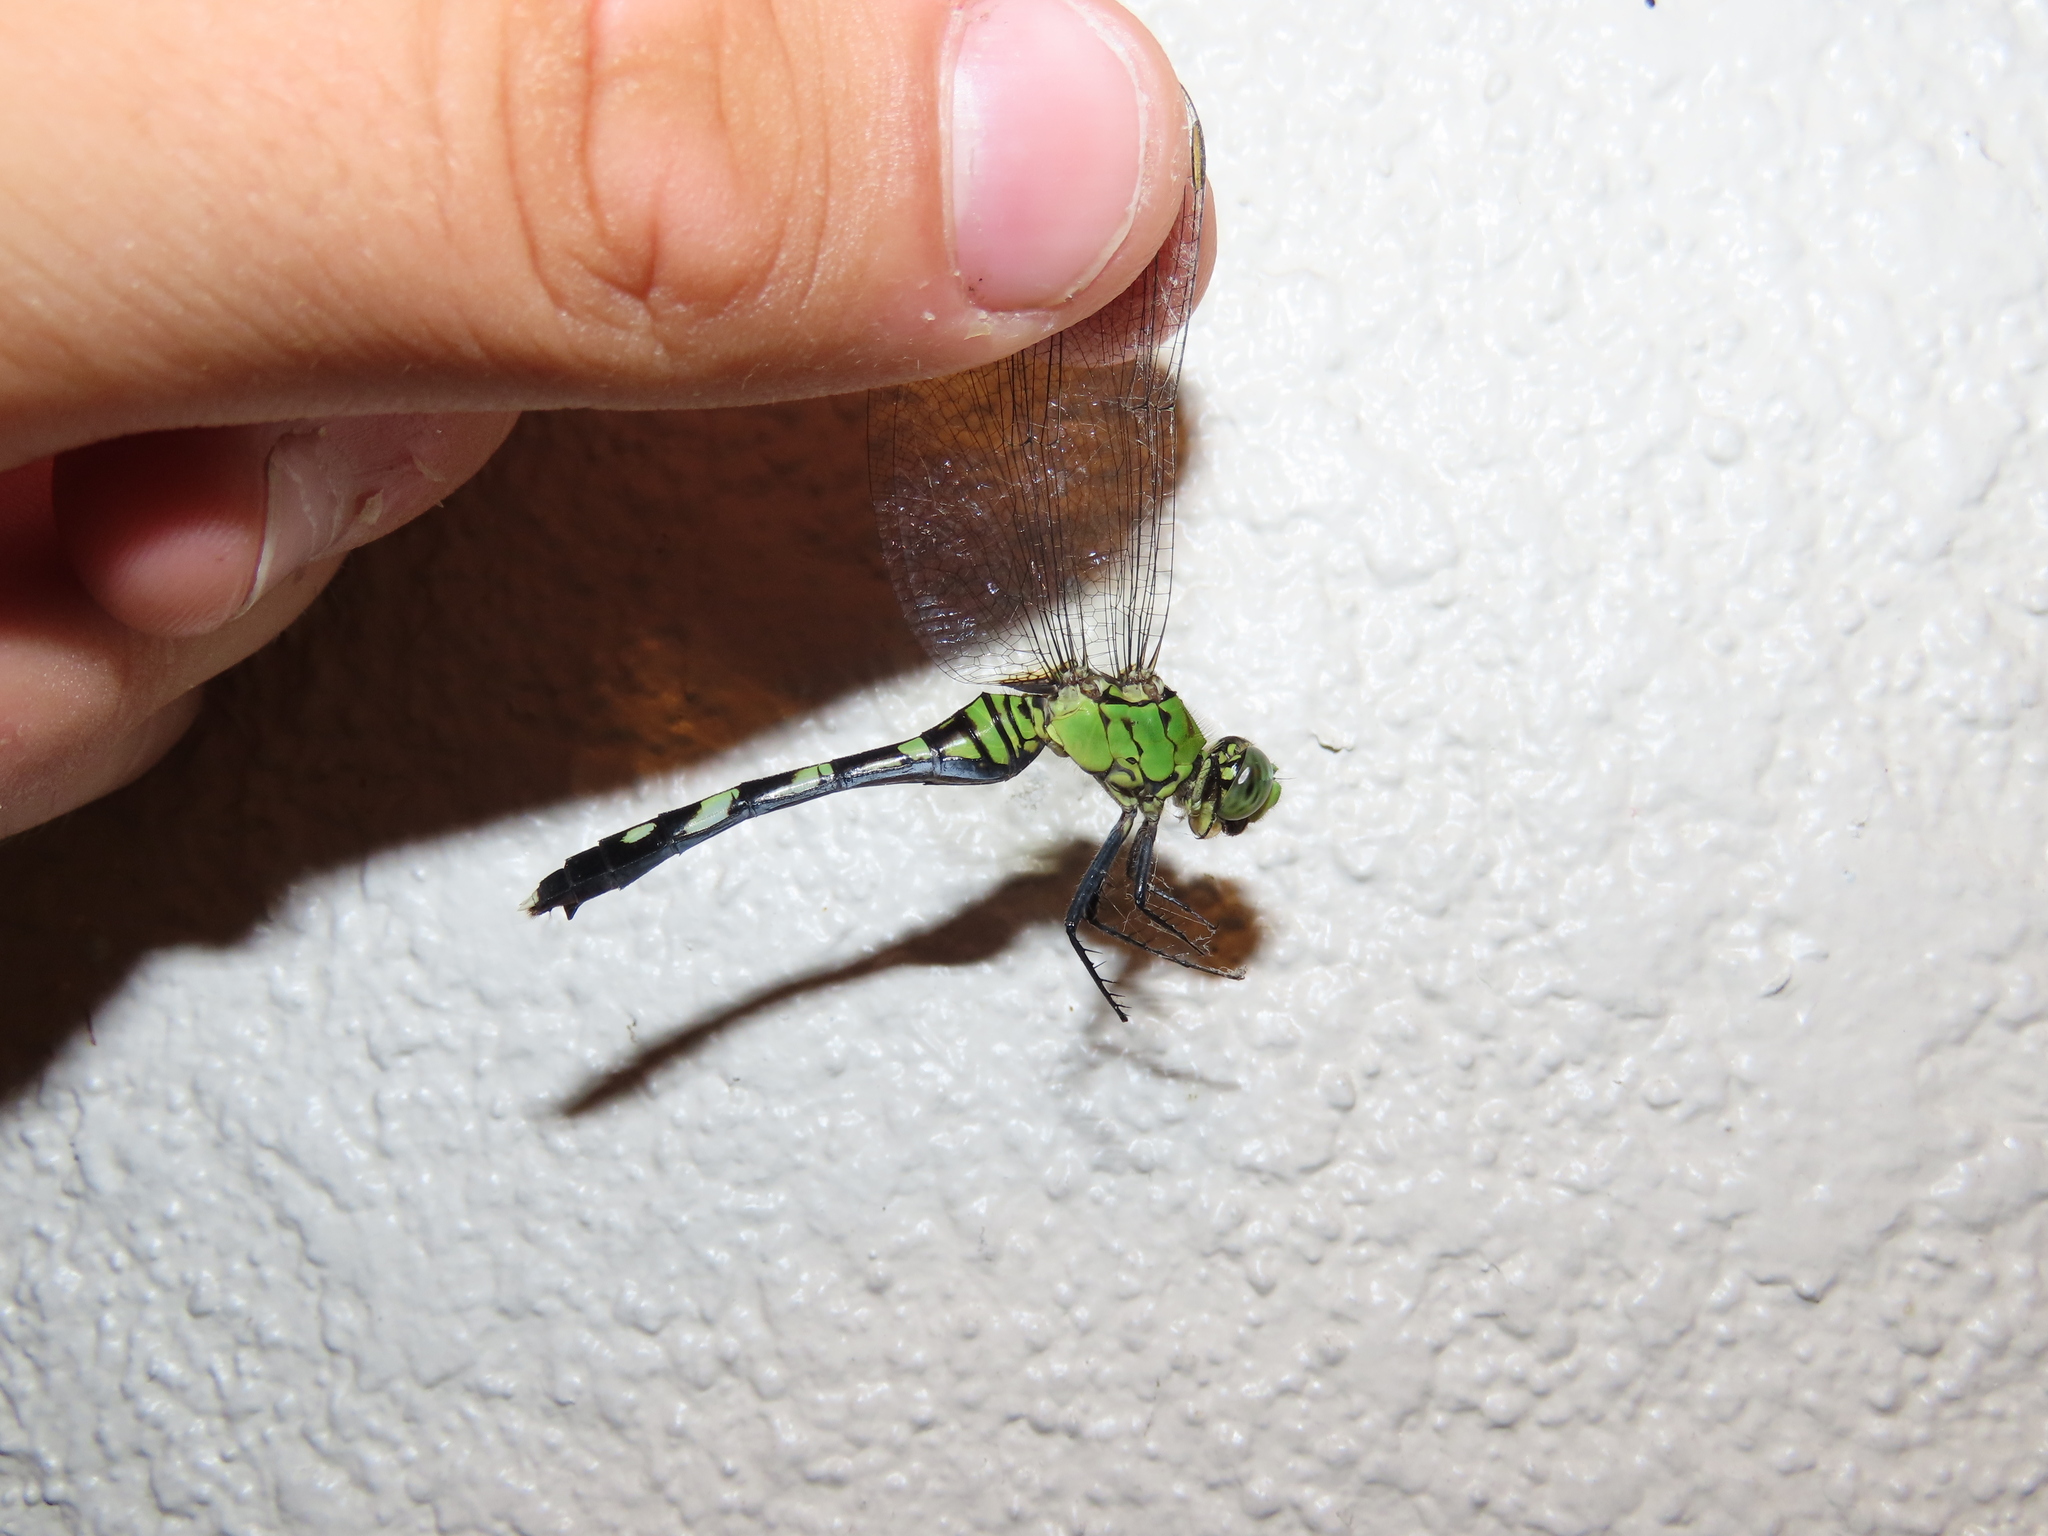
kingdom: Animalia
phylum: Arthropoda
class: Insecta
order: Odonata
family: Libellulidae
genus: Erythemis
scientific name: Erythemis simplicicollis
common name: Eastern pondhawk
